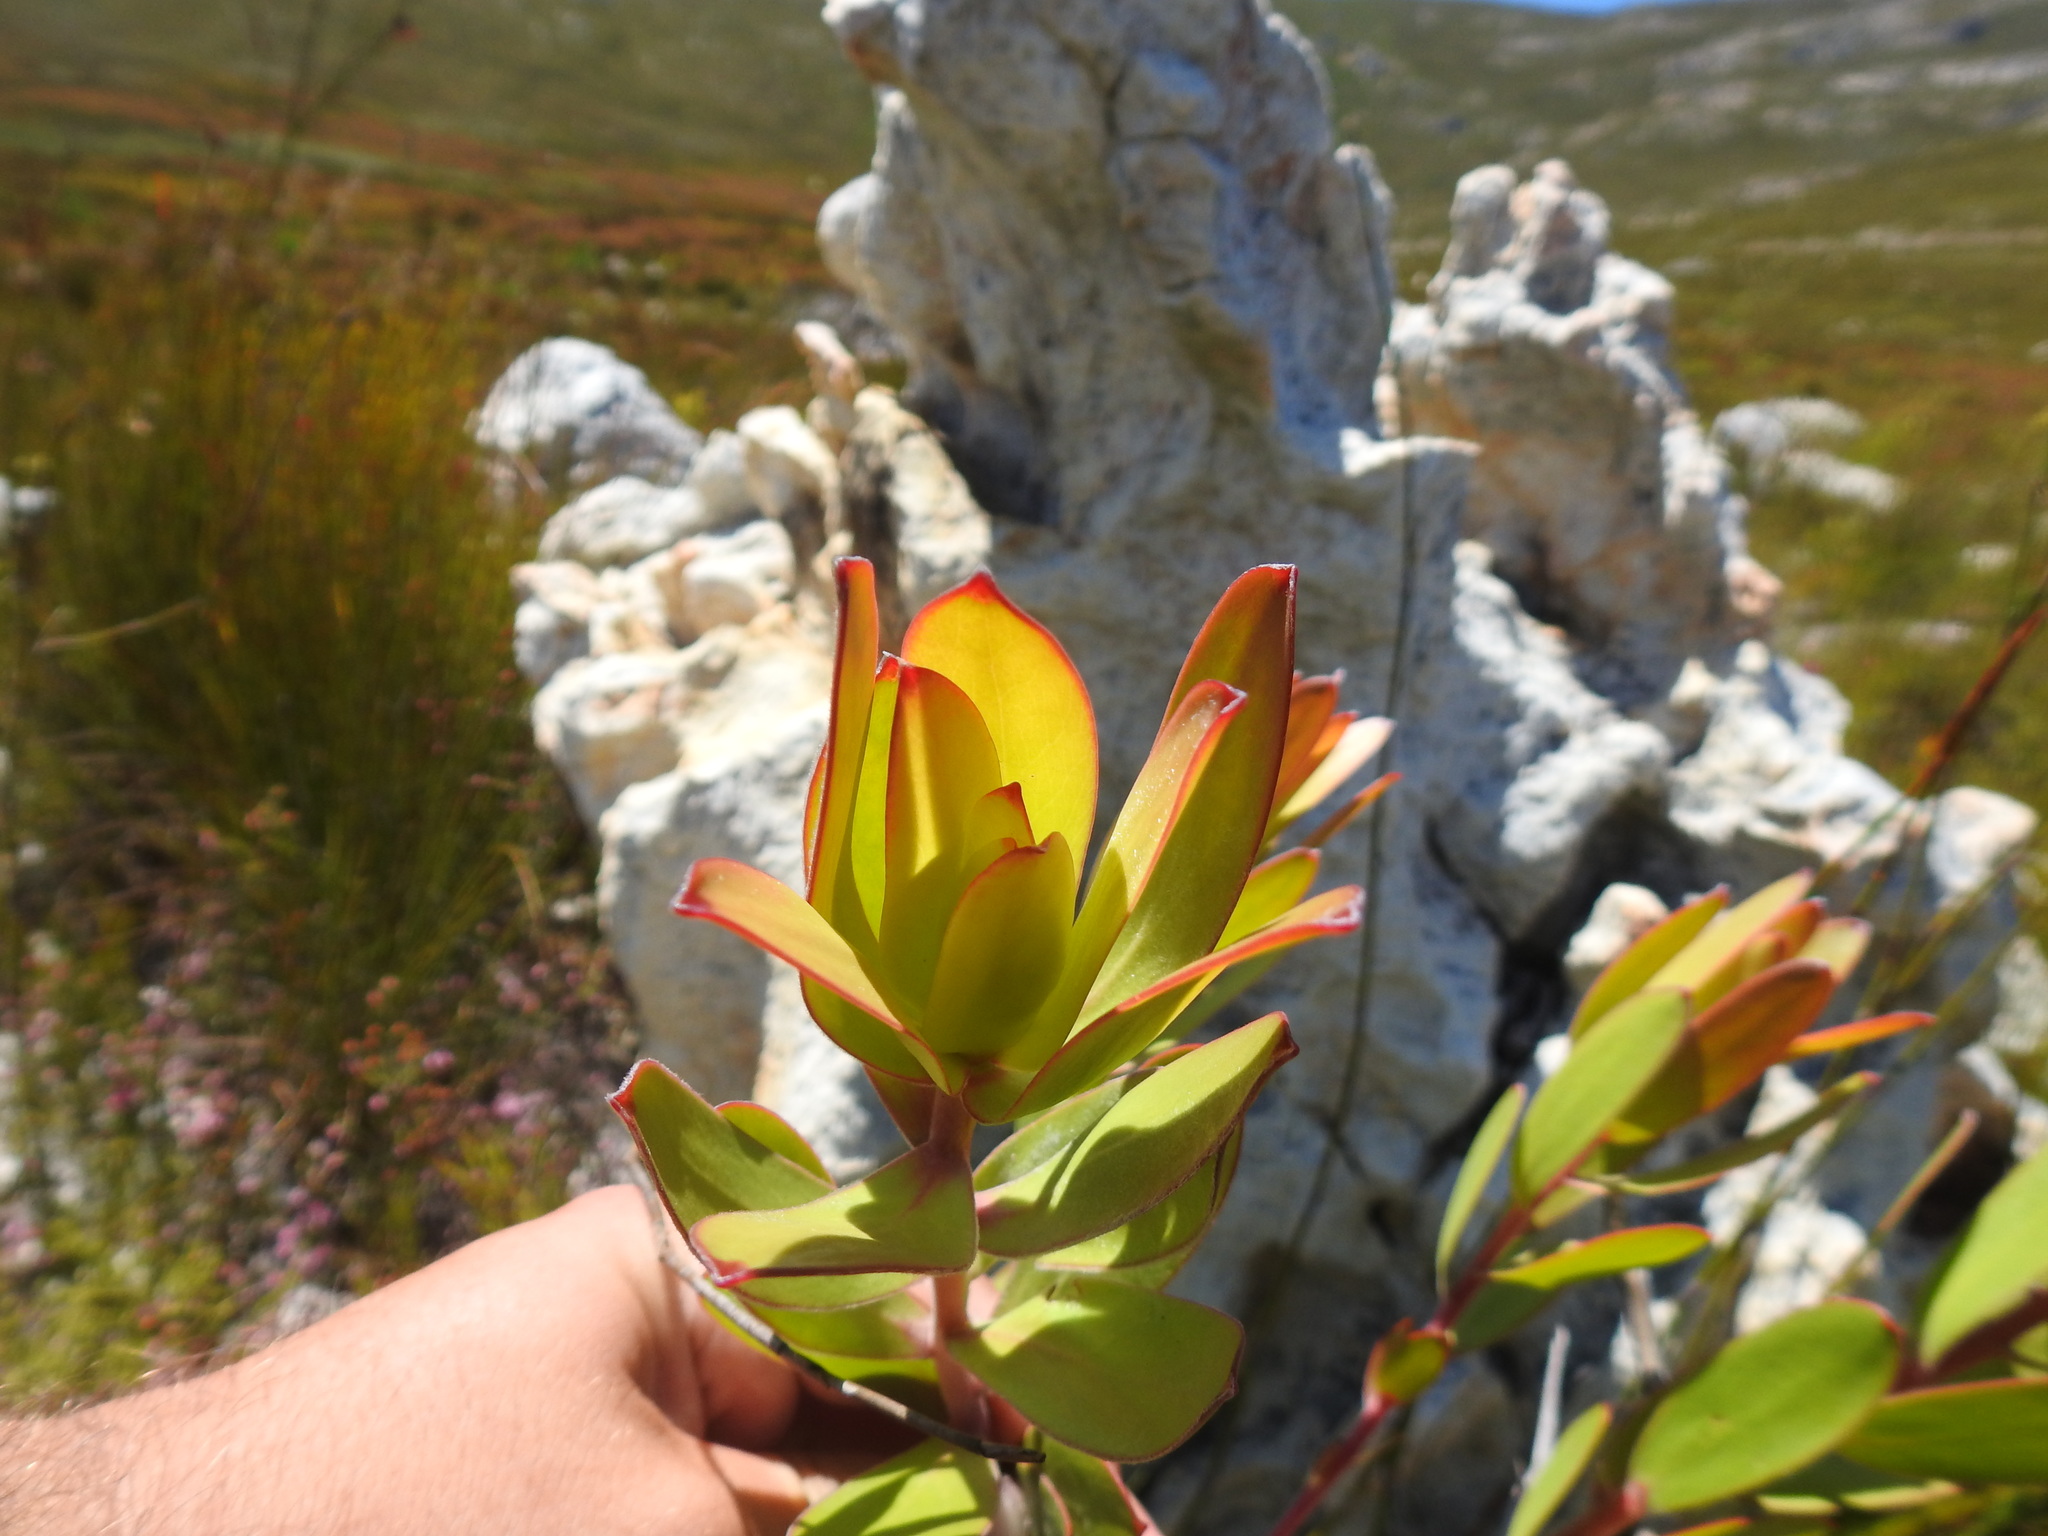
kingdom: Plantae
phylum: Tracheophyta
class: Magnoliopsida
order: Proteales
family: Proteaceae
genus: Leucadendron
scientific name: Leucadendron gandogeri
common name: Broad-leaf conebush
